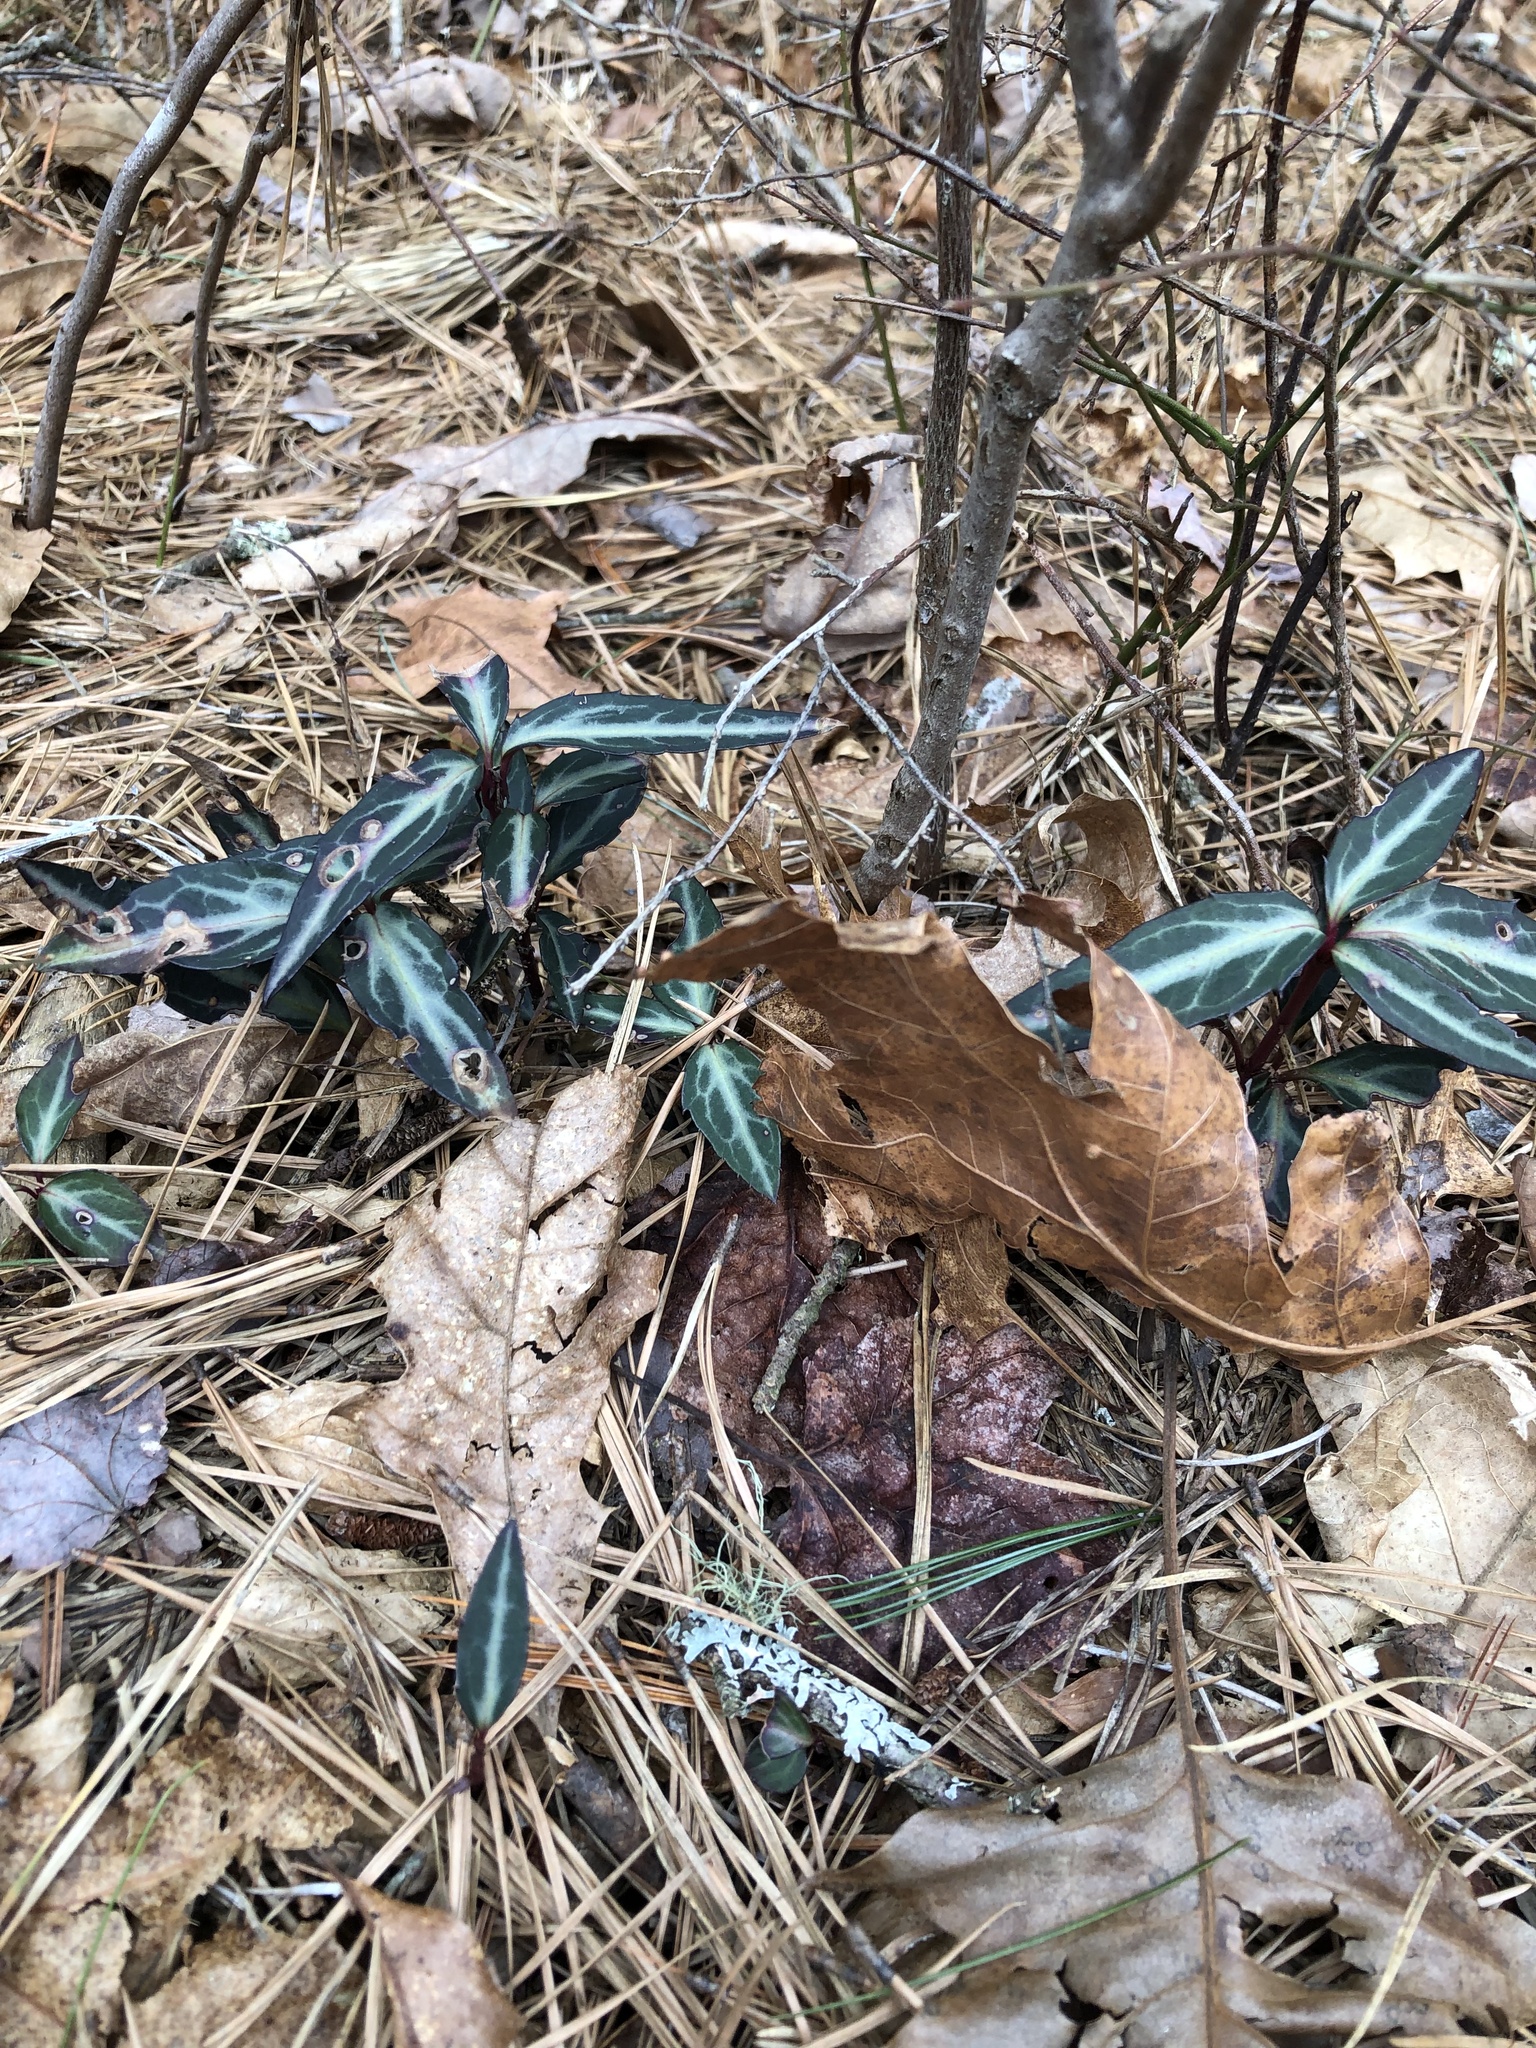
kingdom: Plantae
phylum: Tracheophyta
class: Magnoliopsida
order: Ericales
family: Ericaceae
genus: Chimaphila
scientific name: Chimaphila maculata
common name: Spotted pipsissewa
